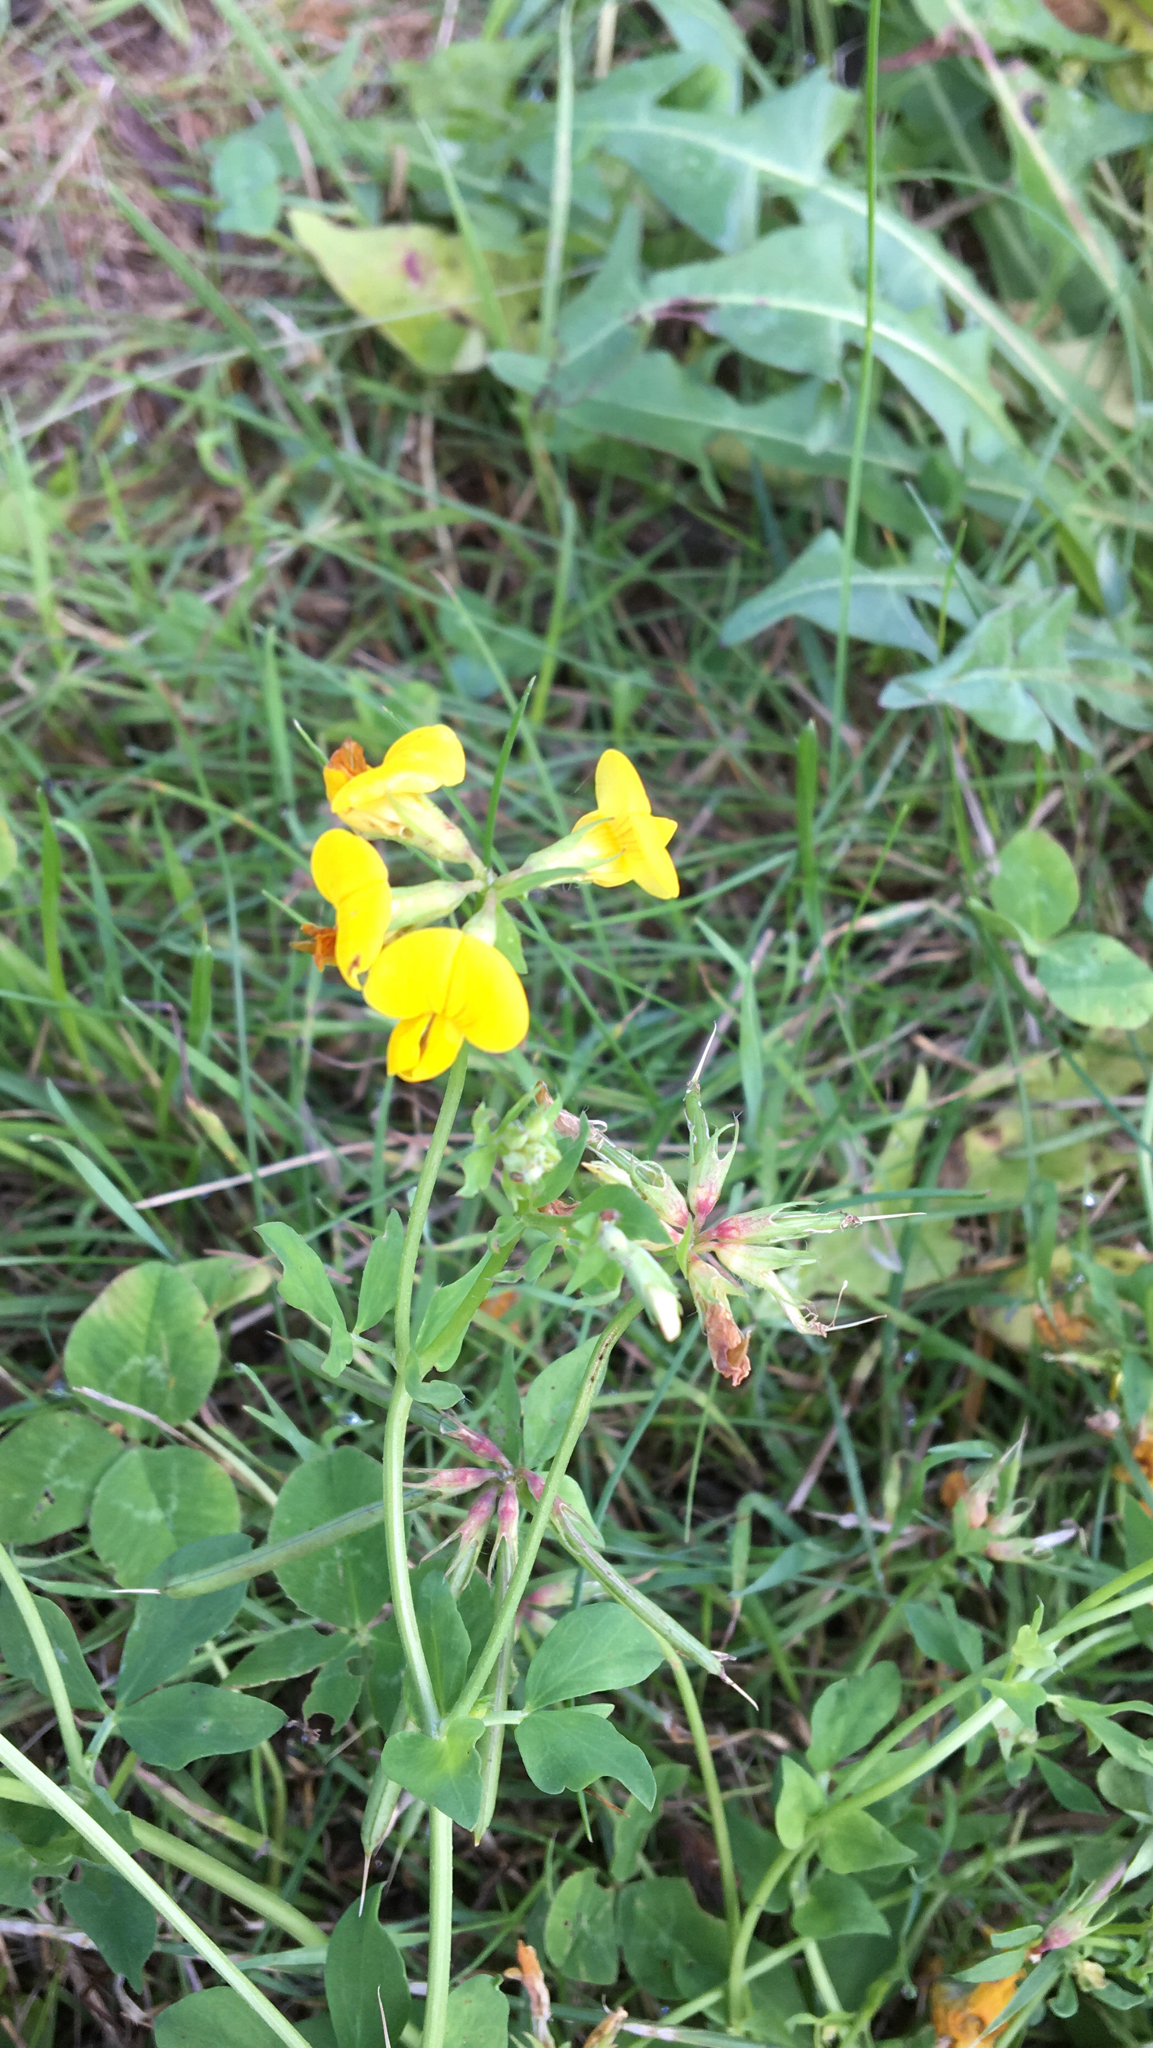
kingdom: Plantae
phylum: Tracheophyta
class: Magnoliopsida
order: Fabales
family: Fabaceae
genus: Lotus
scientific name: Lotus corniculatus
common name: Common bird's-foot-trefoil
